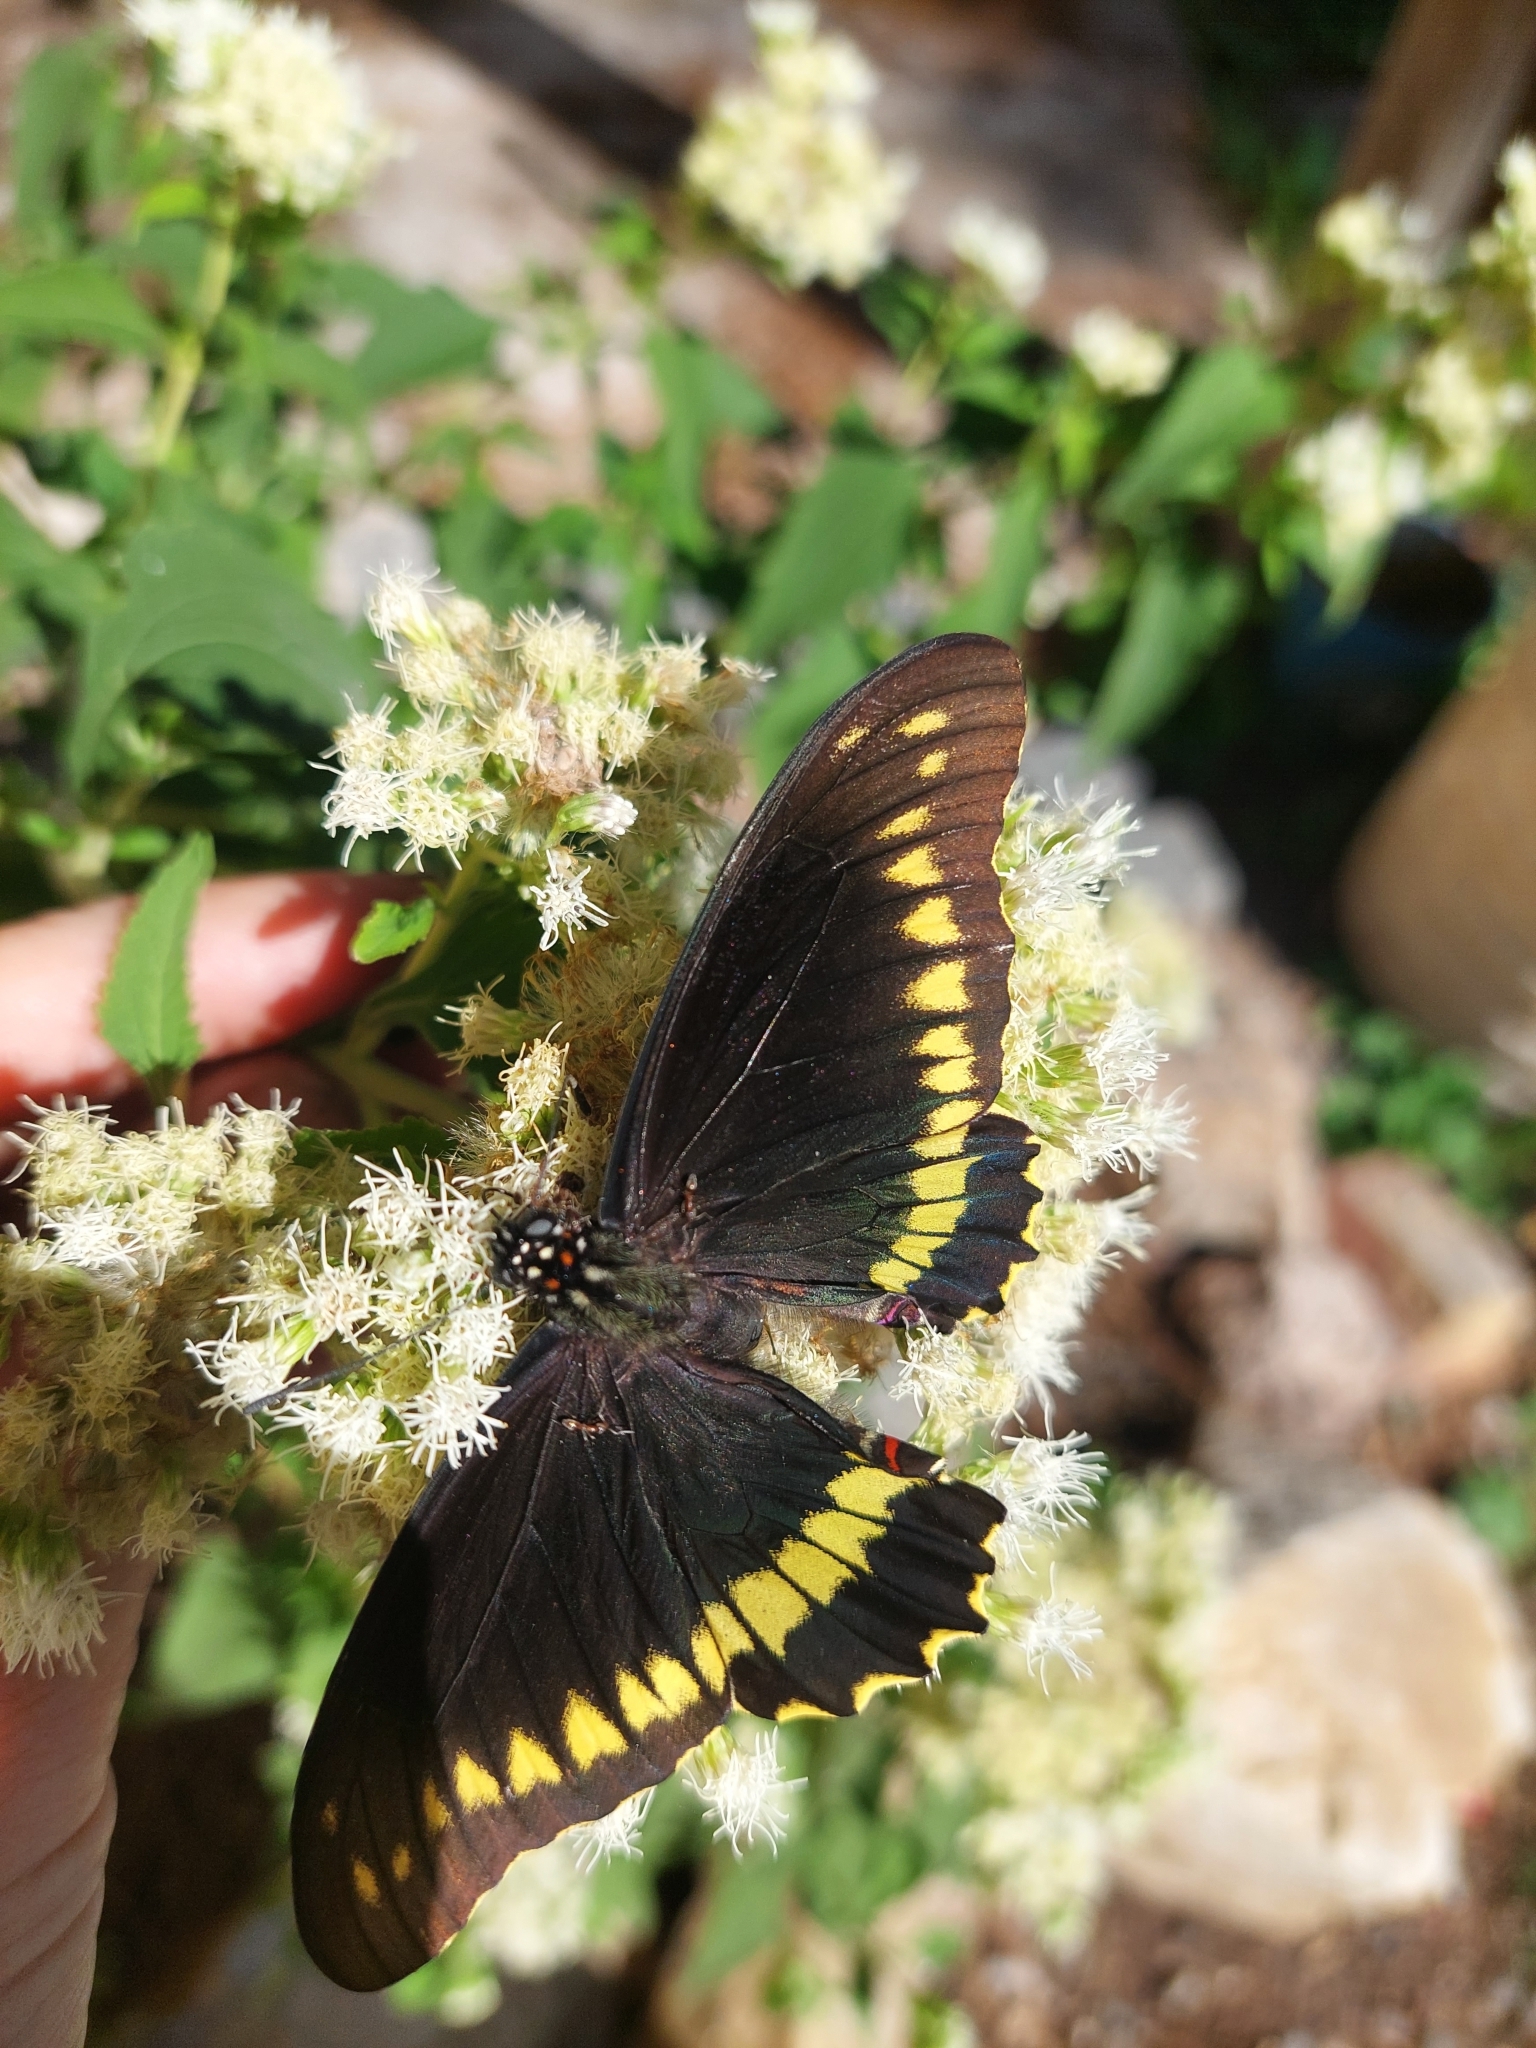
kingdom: Animalia
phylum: Arthropoda
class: Insecta
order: Lepidoptera
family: Papilionidae
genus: Battus
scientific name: Battus polydamas
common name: Polydamas swallowtail
